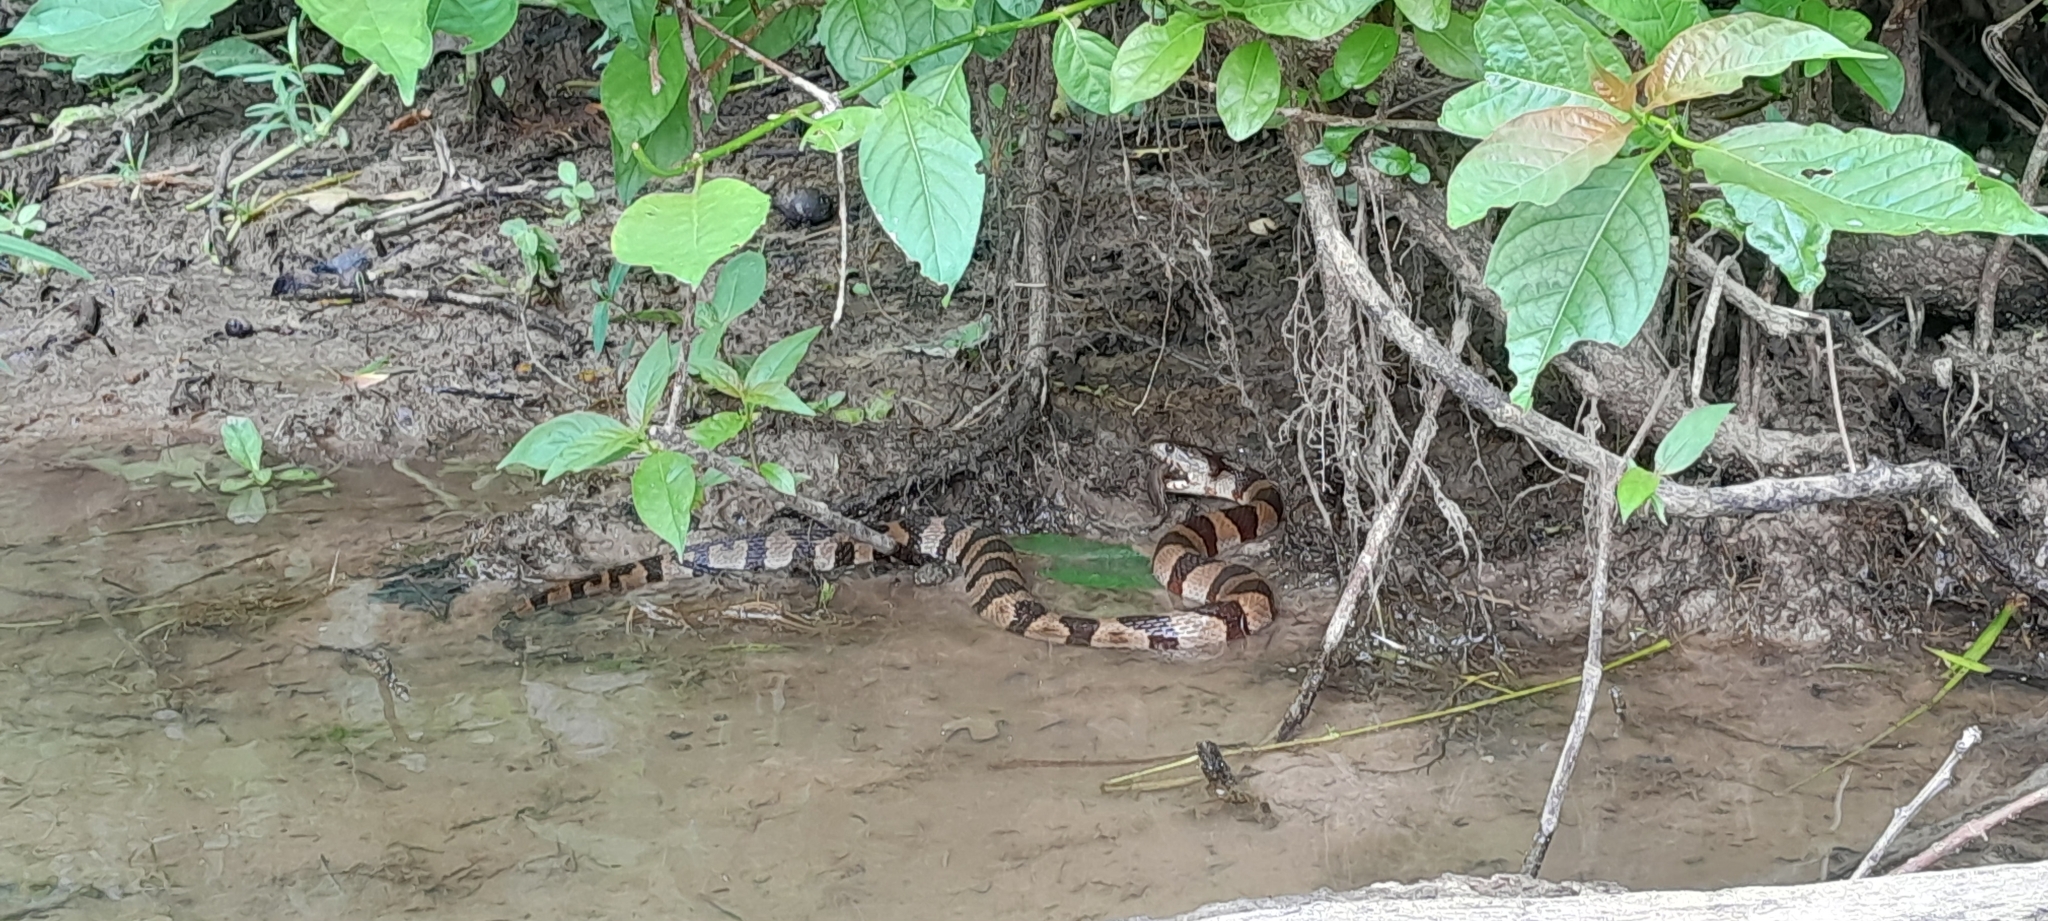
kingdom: Animalia
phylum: Chordata
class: Squamata
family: Colubridae
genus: Nerodia
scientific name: Nerodia sipedon
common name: Northern water snake
